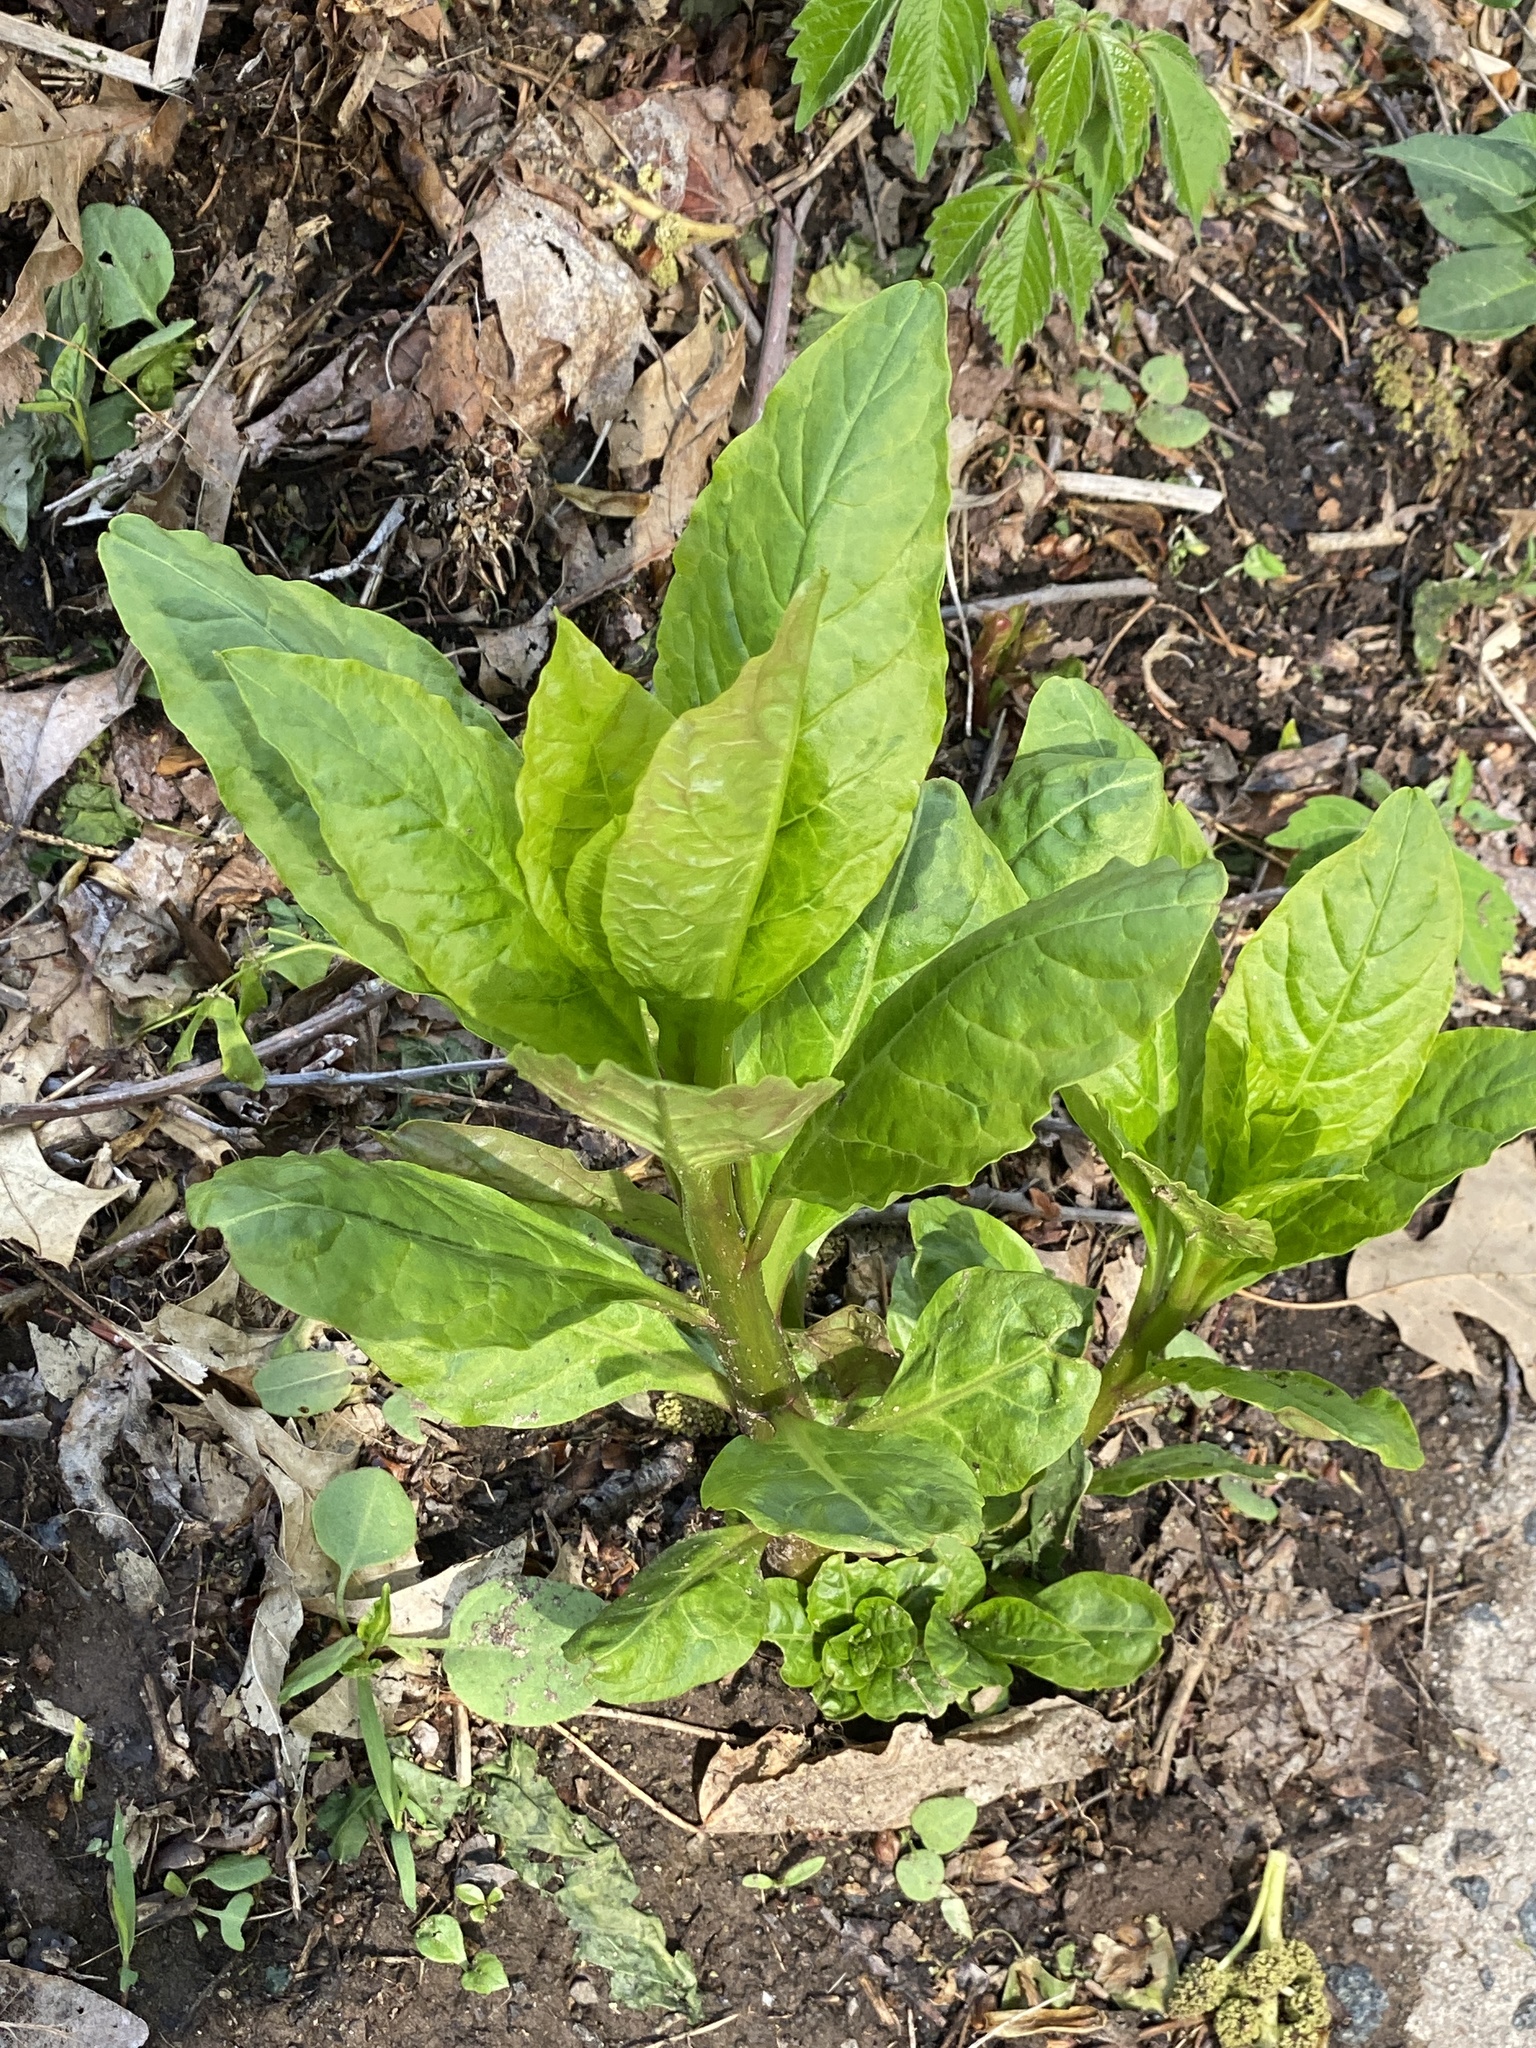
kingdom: Plantae
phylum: Tracheophyta
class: Magnoliopsida
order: Caryophyllales
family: Phytolaccaceae
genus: Phytolacca
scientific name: Phytolacca americana
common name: American pokeweed
